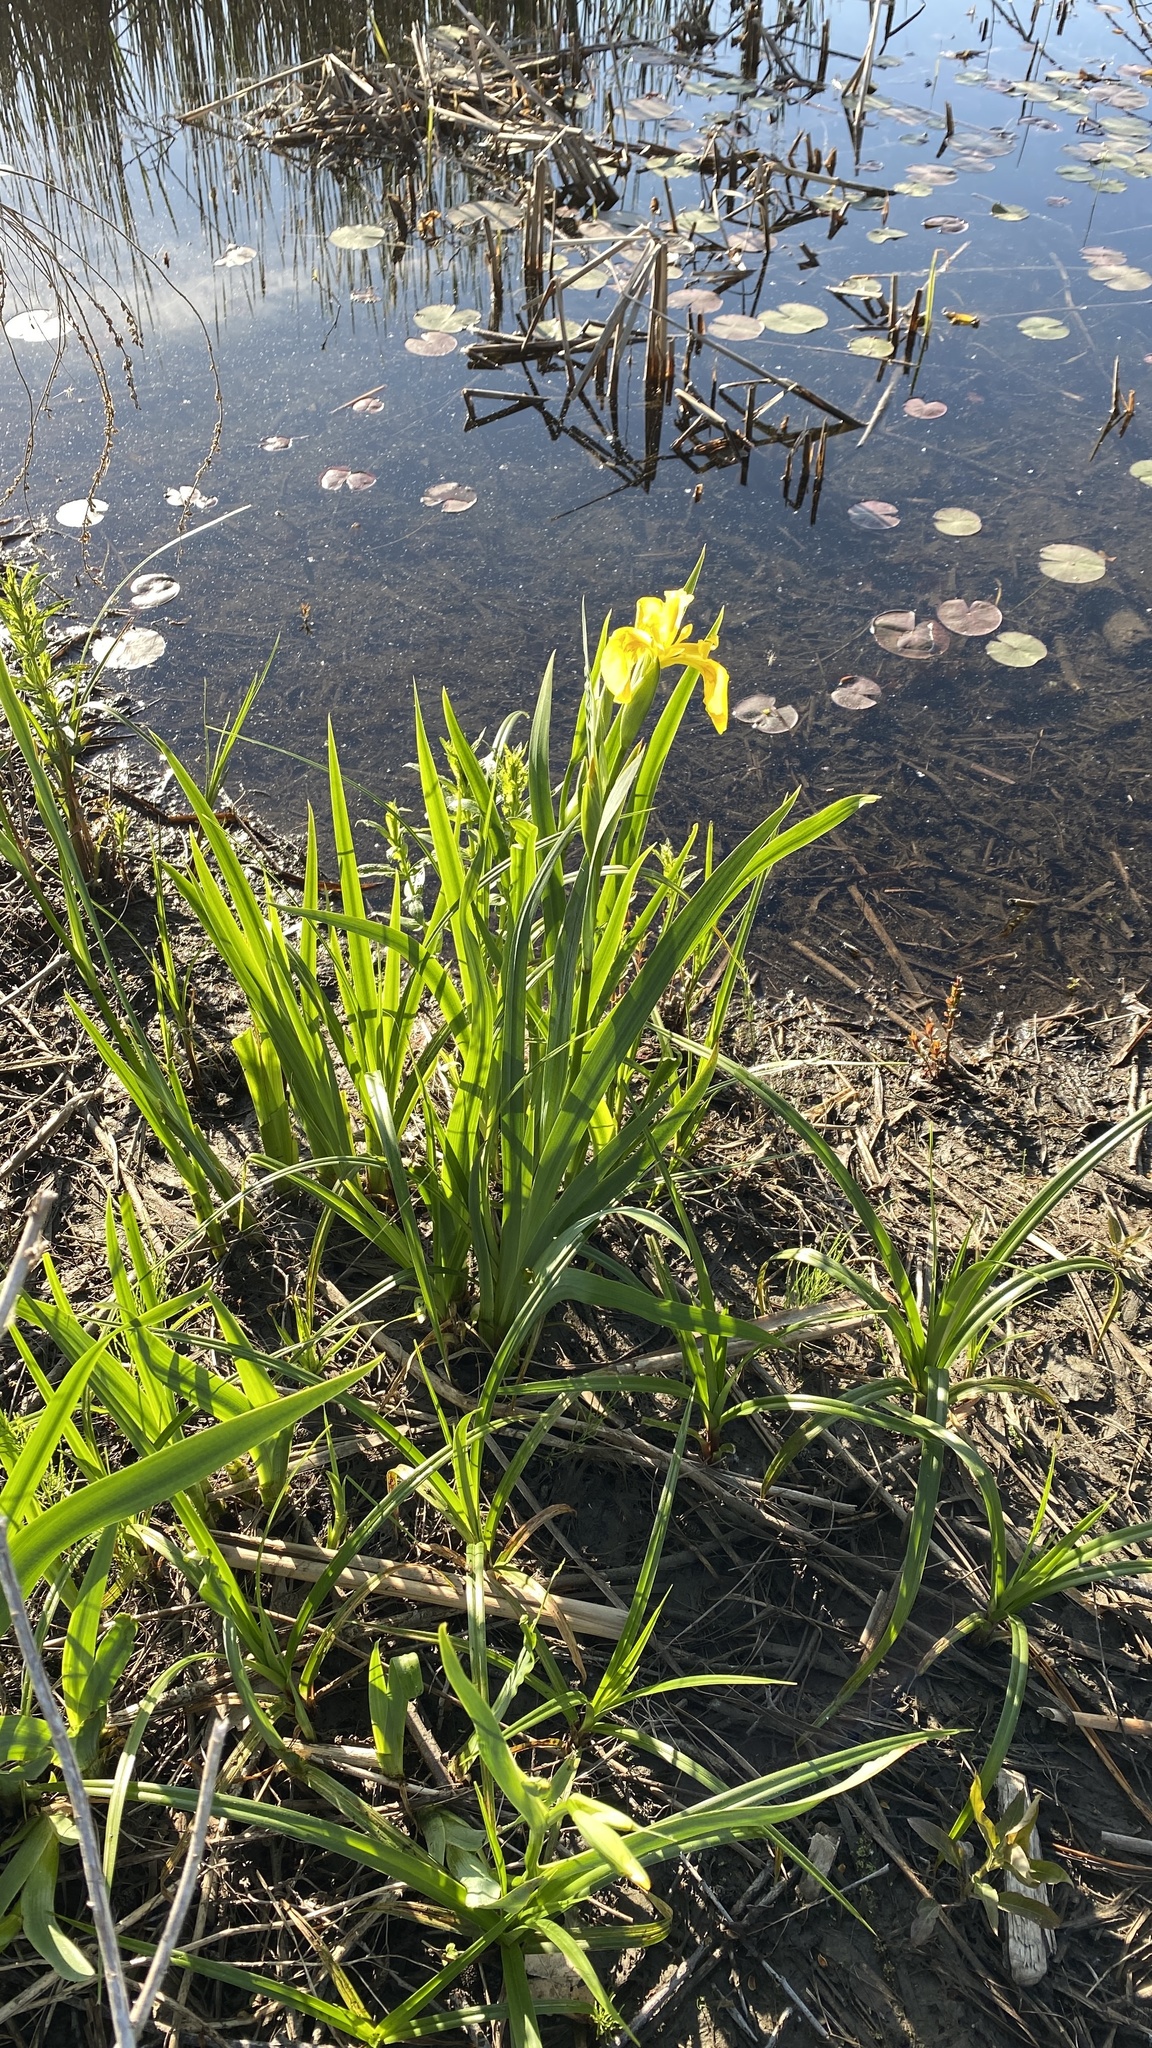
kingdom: Plantae
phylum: Tracheophyta
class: Liliopsida
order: Asparagales
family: Iridaceae
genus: Iris
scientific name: Iris pseudacorus
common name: Yellow flag
